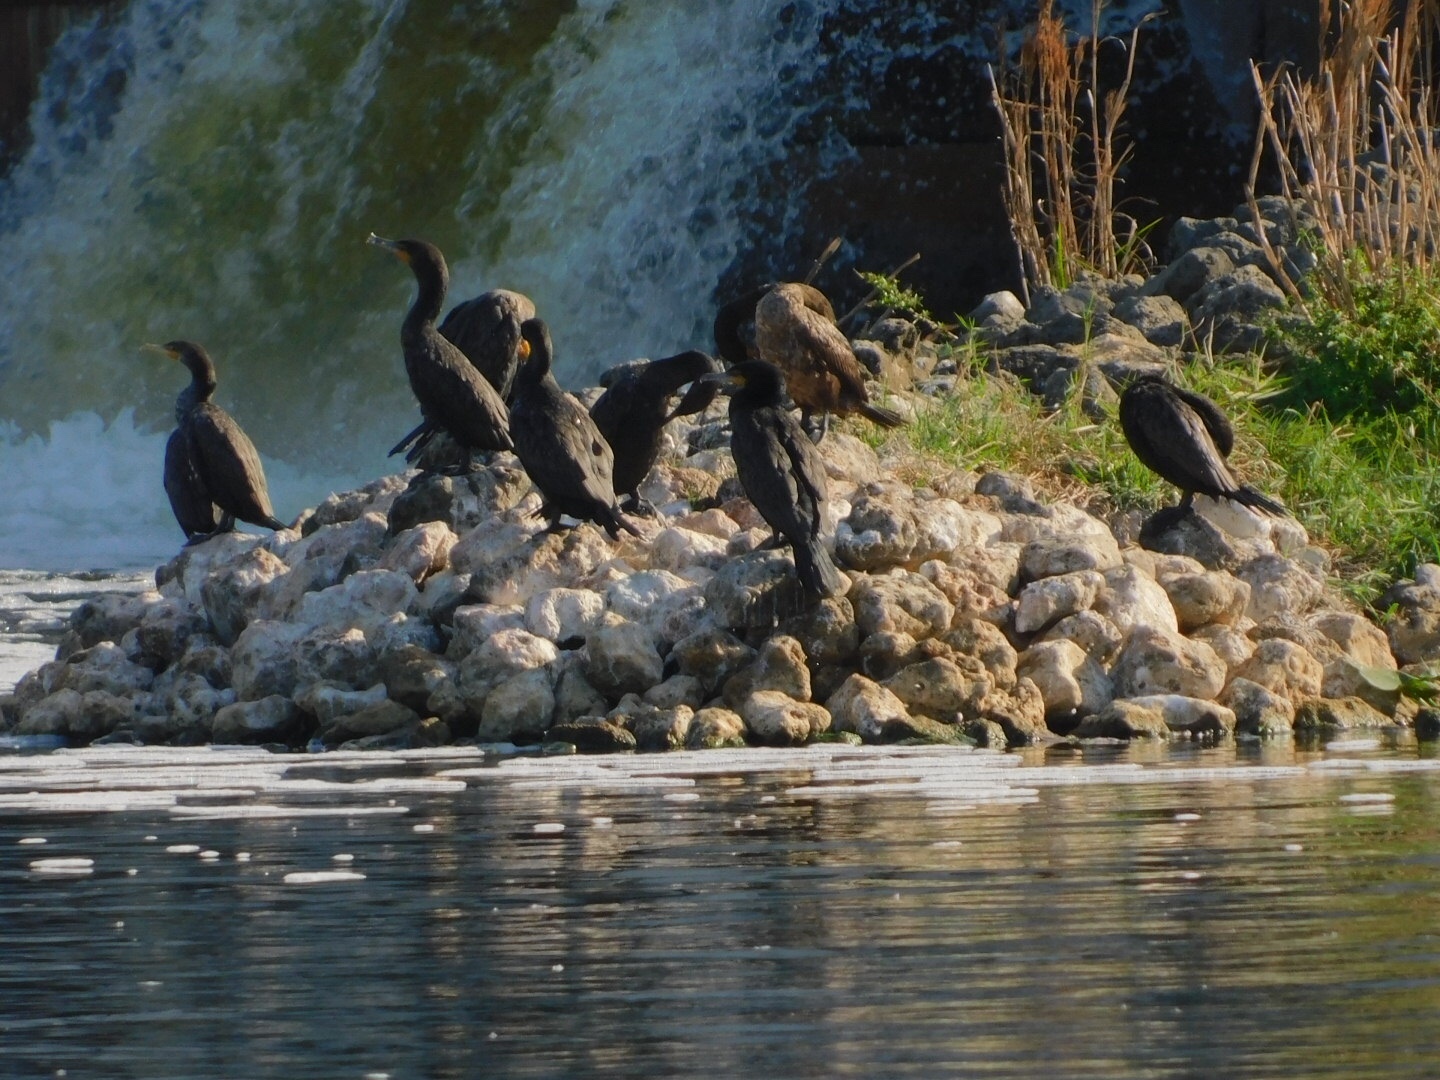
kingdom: Animalia
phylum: Chordata
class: Aves
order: Suliformes
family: Phalacrocoracidae
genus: Phalacrocorax
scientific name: Phalacrocorax auritus
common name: Double-crested cormorant
